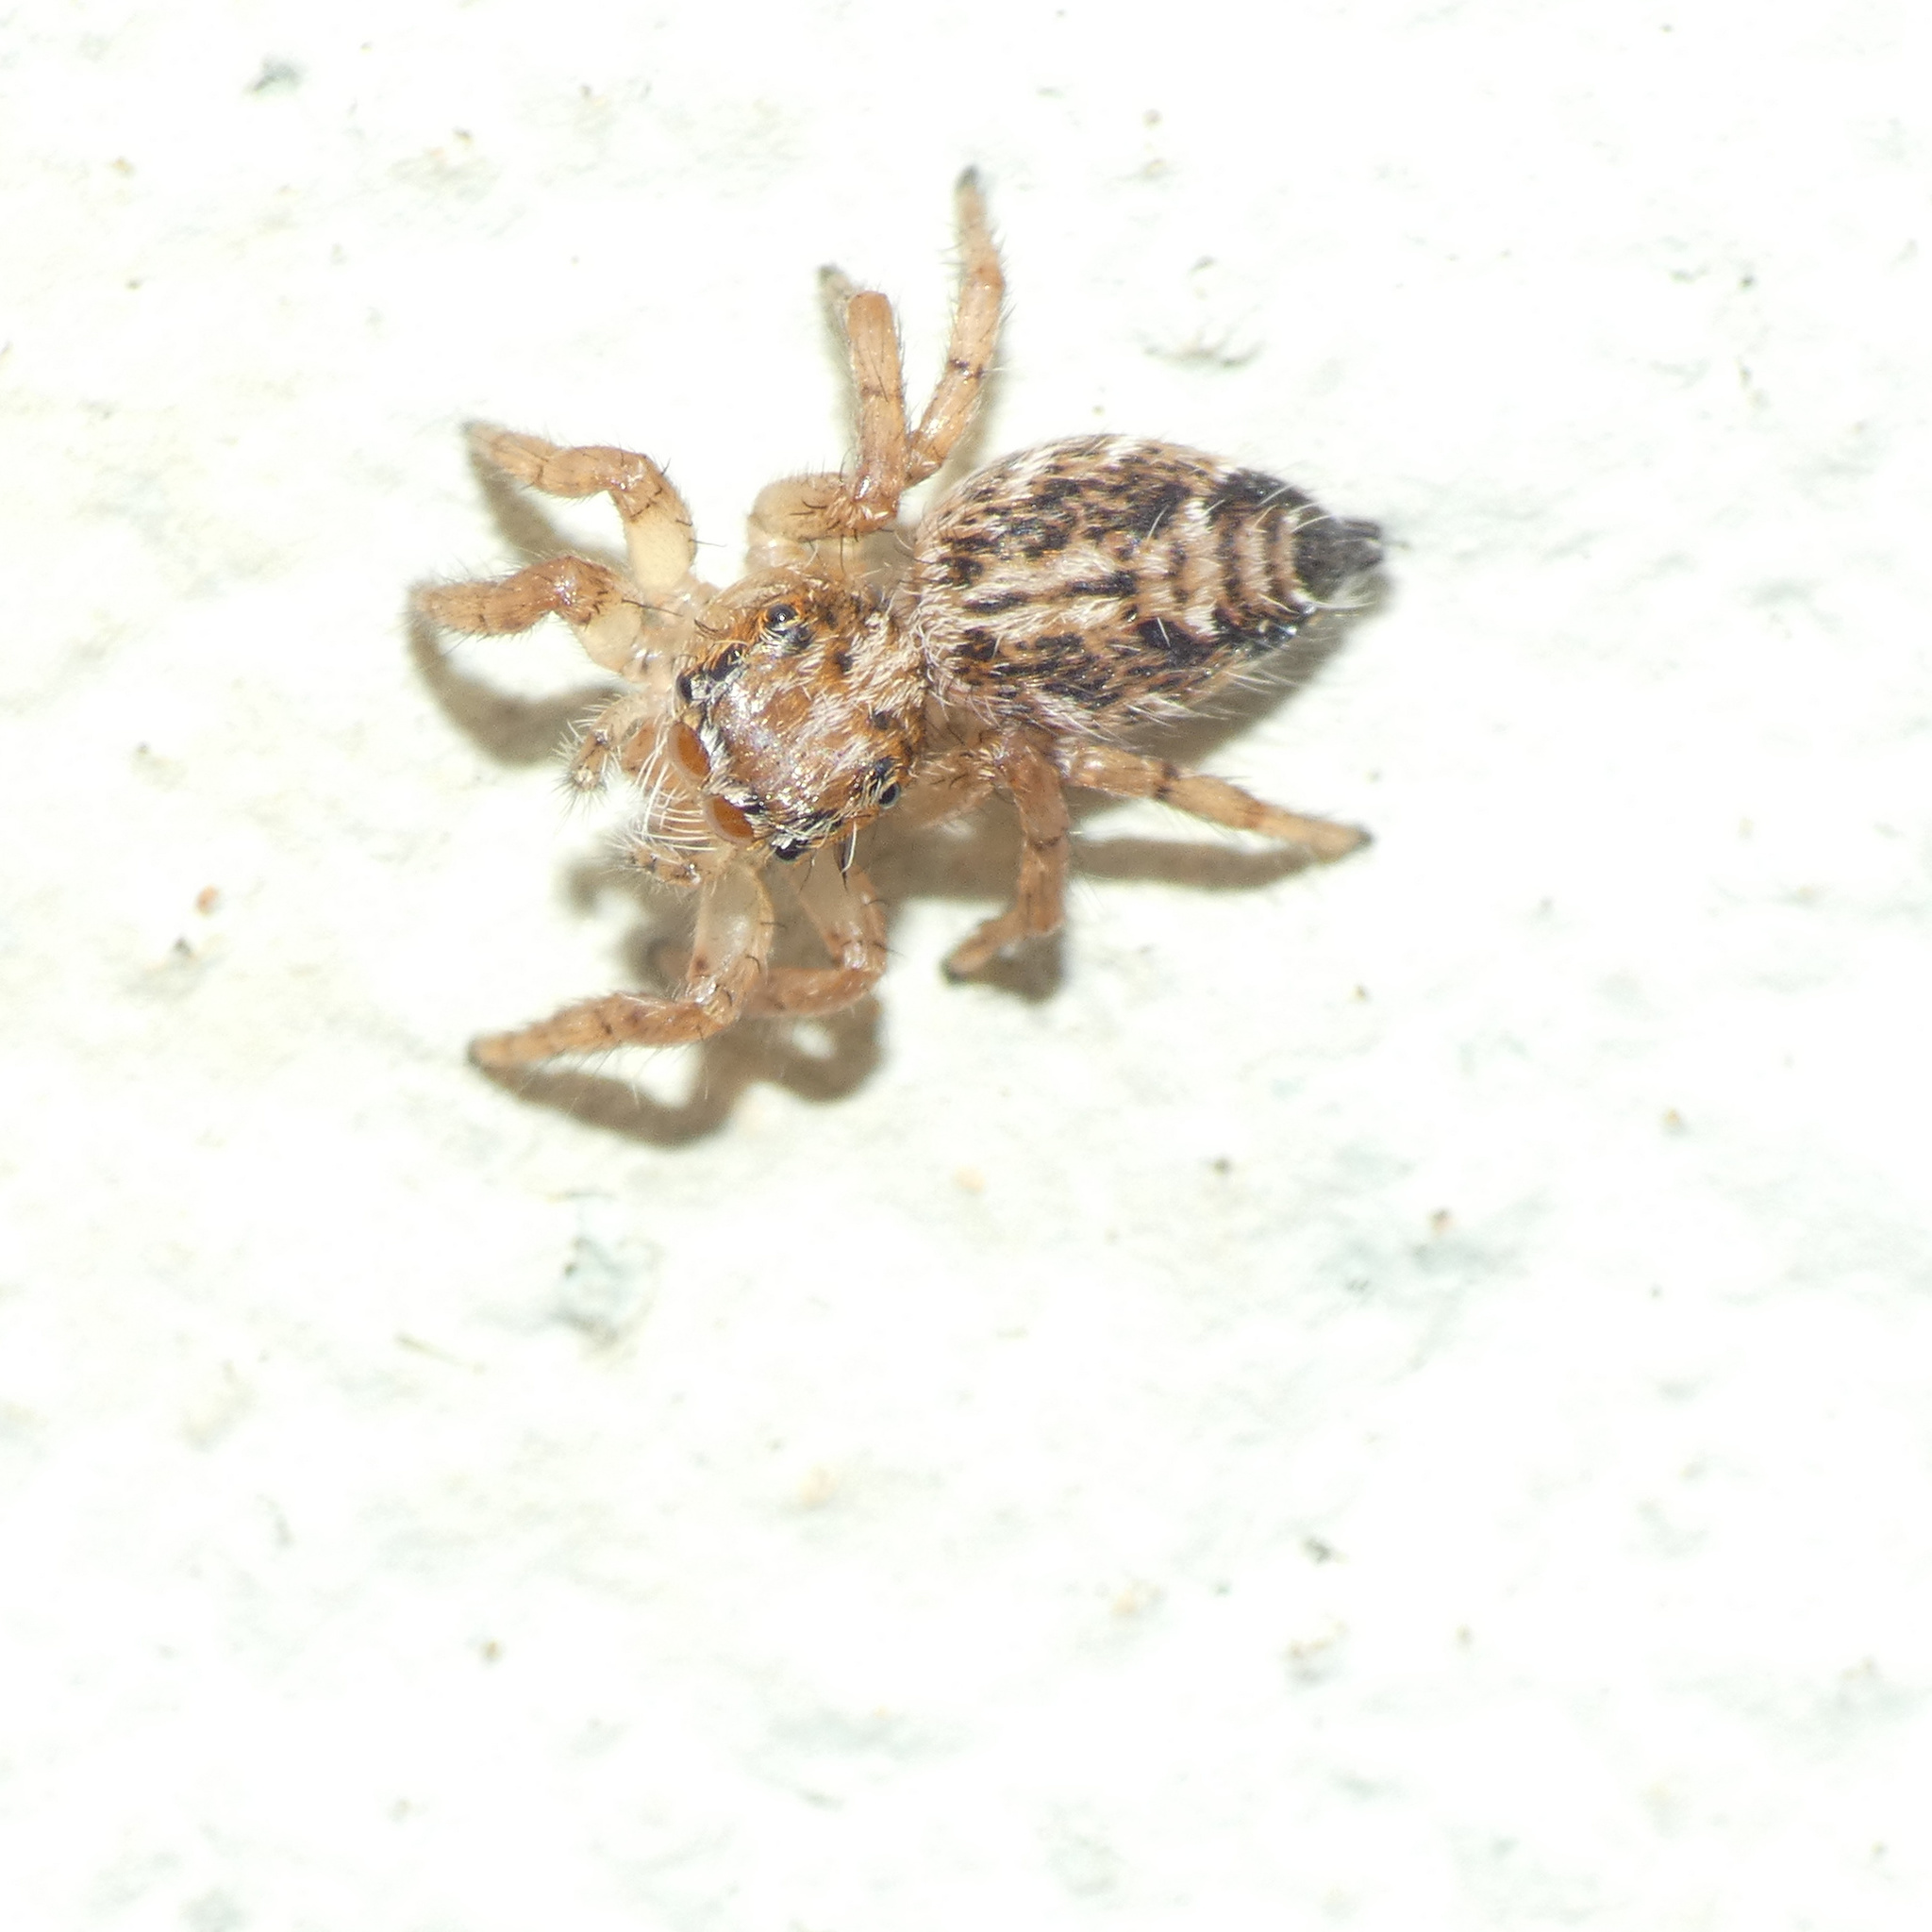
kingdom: Animalia
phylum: Arthropoda
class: Arachnida
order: Araneae
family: Salticidae
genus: Hyllus
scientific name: Hyllus argyrotoxus
